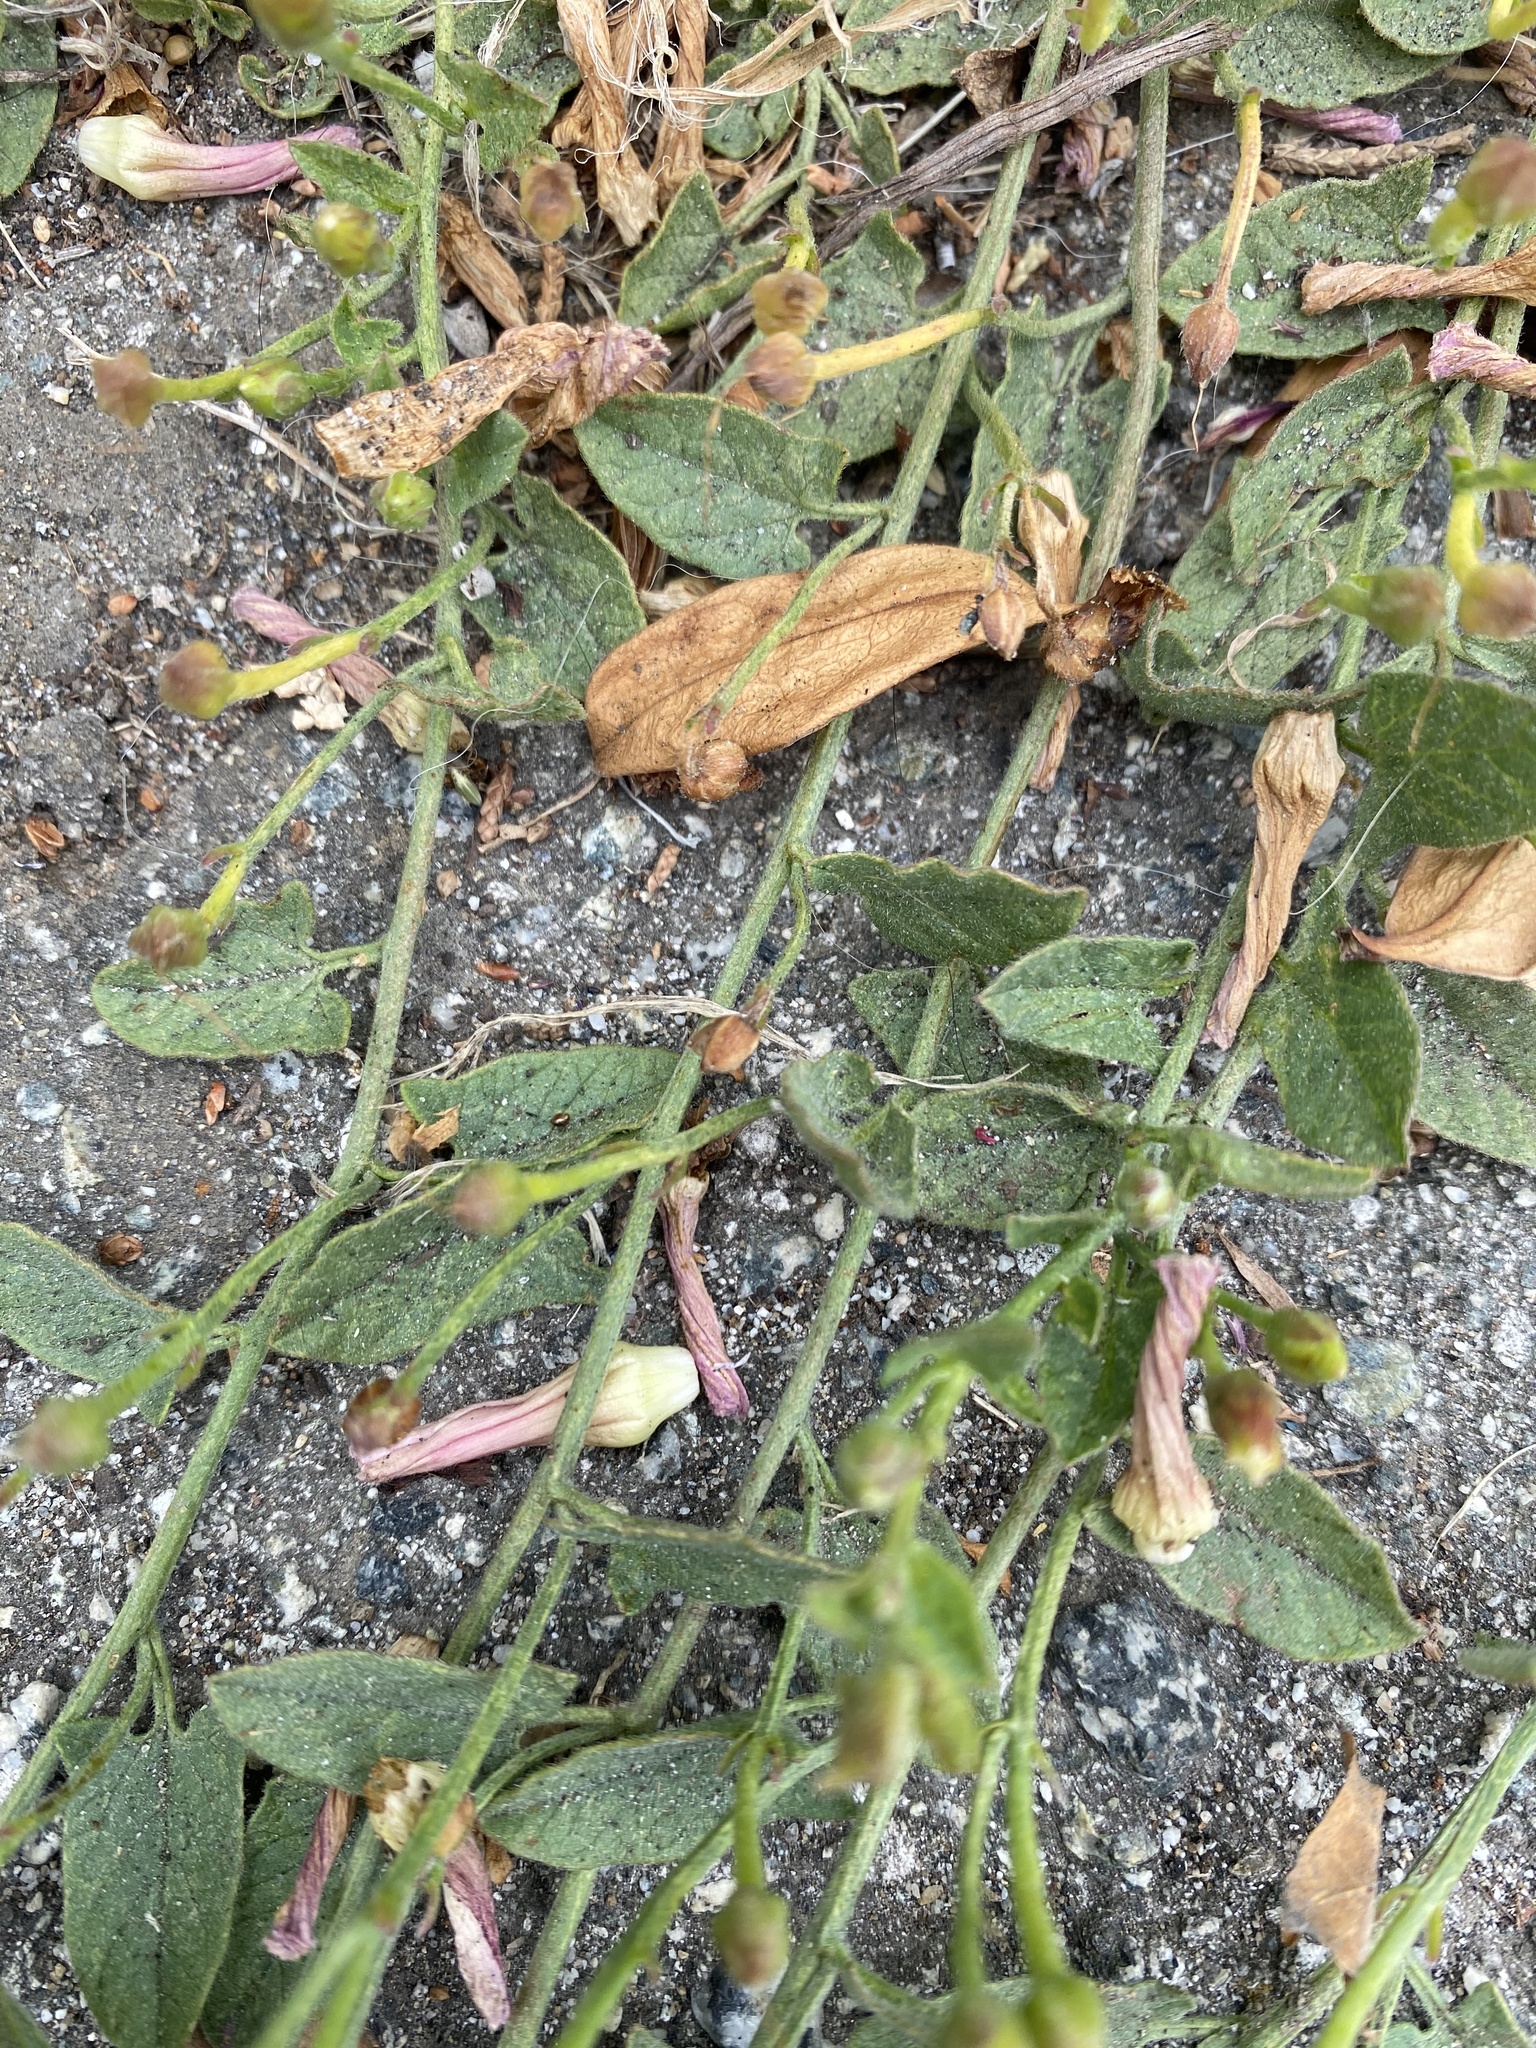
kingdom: Plantae
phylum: Tracheophyta
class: Magnoliopsida
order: Solanales
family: Convolvulaceae
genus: Convolvulus
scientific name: Convolvulus arvensis
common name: Field bindweed
